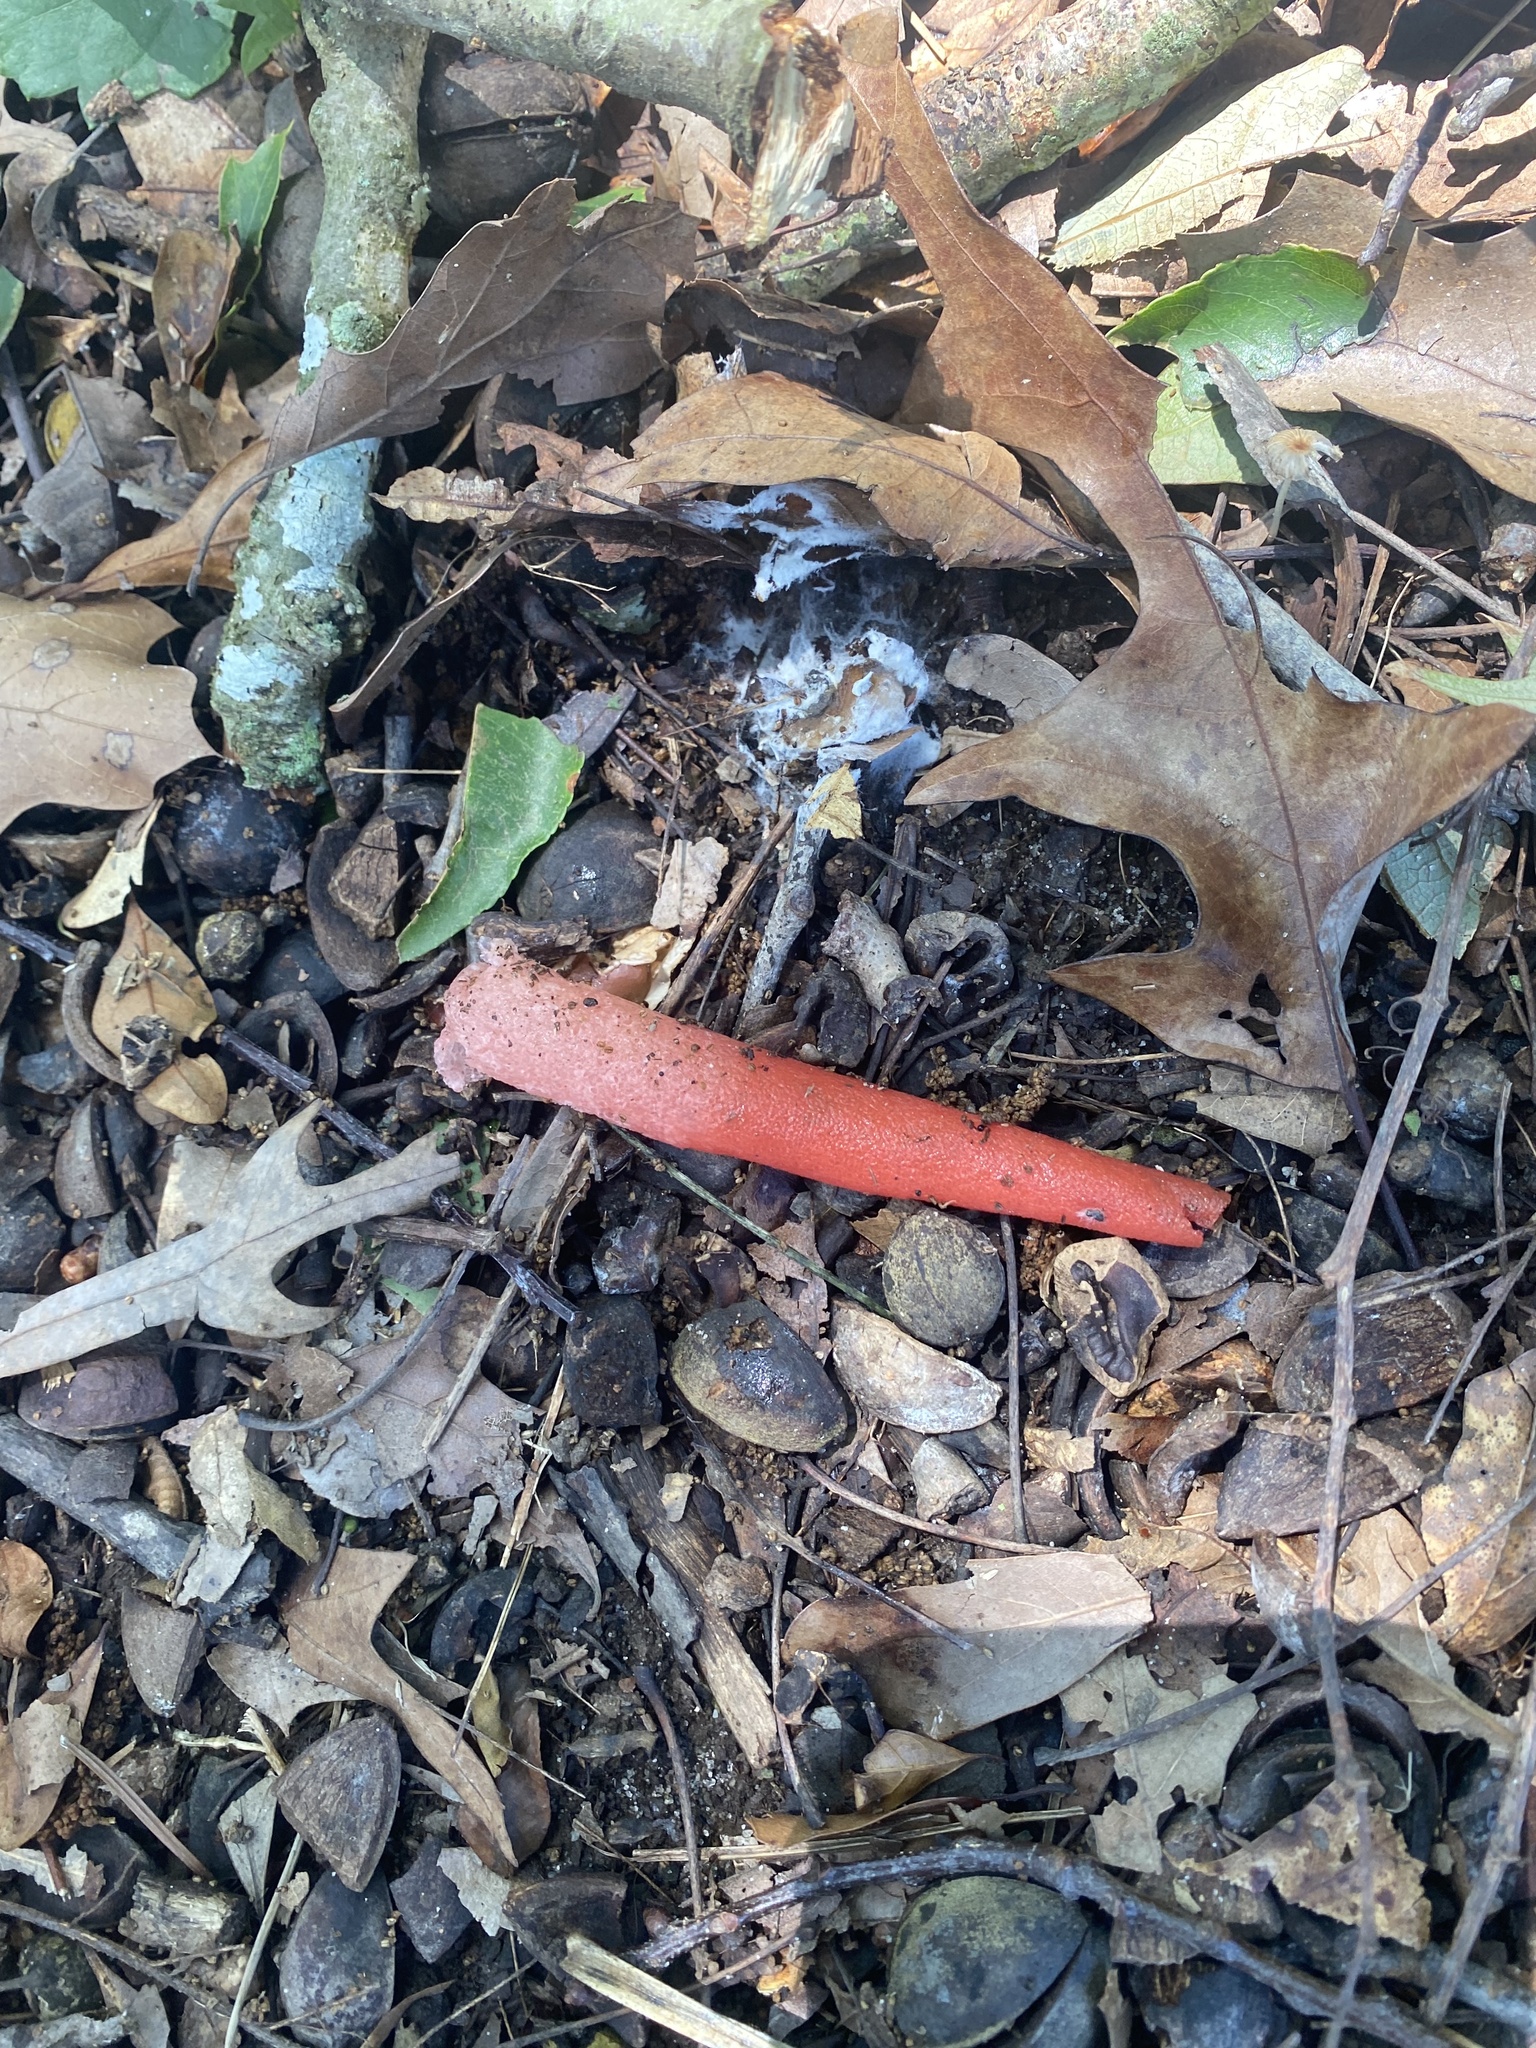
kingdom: Fungi
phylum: Basidiomycota
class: Agaricomycetes
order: Phallales
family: Phallaceae
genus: Mutinus
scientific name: Mutinus elegans
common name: Devil's dipstick
